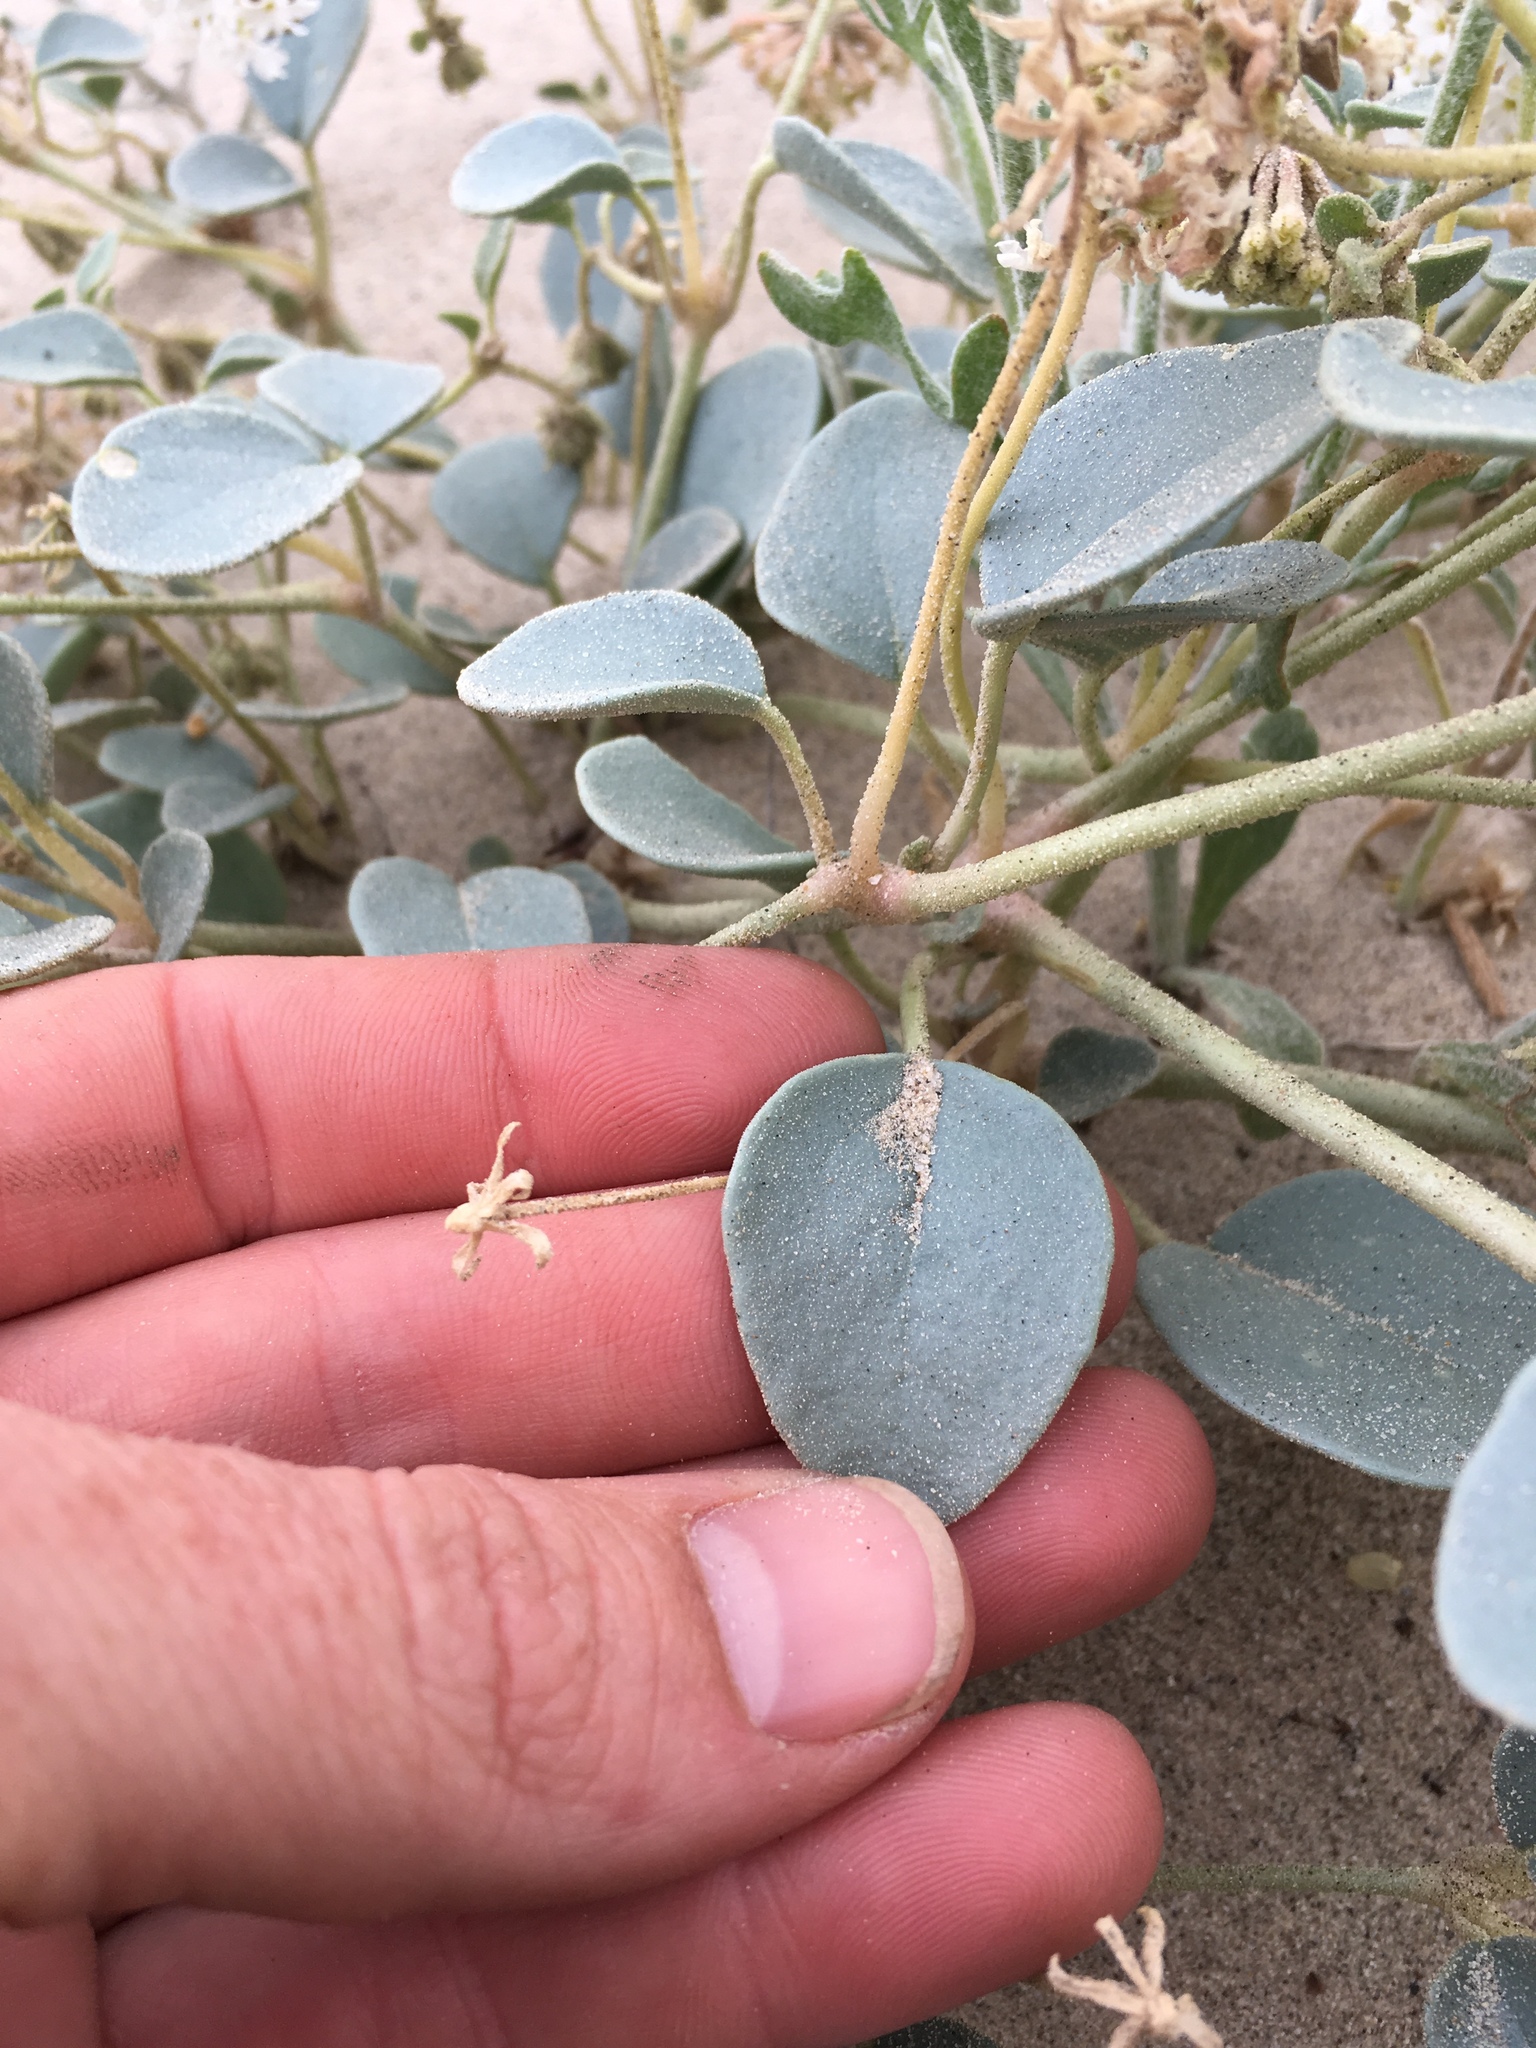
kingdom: Plantae
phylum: Tracheophyta
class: Magnoliopsida
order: Caryophyllales
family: Nyctaginaceae
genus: Abronia
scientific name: Abronia turbinata
